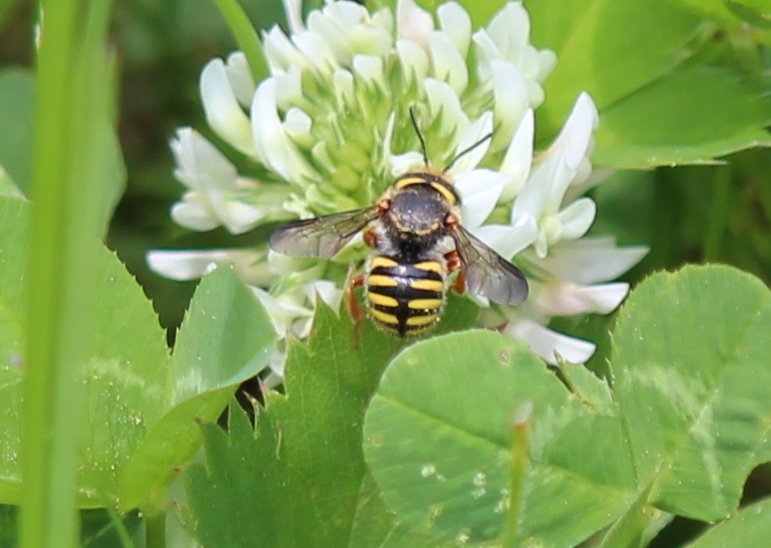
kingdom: Animalia
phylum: Arthropoda
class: Insecta
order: Hymenoptera
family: Megachilidae
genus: Anthidium
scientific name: Anthidium oblongatum
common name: Oblong wool carder bee
